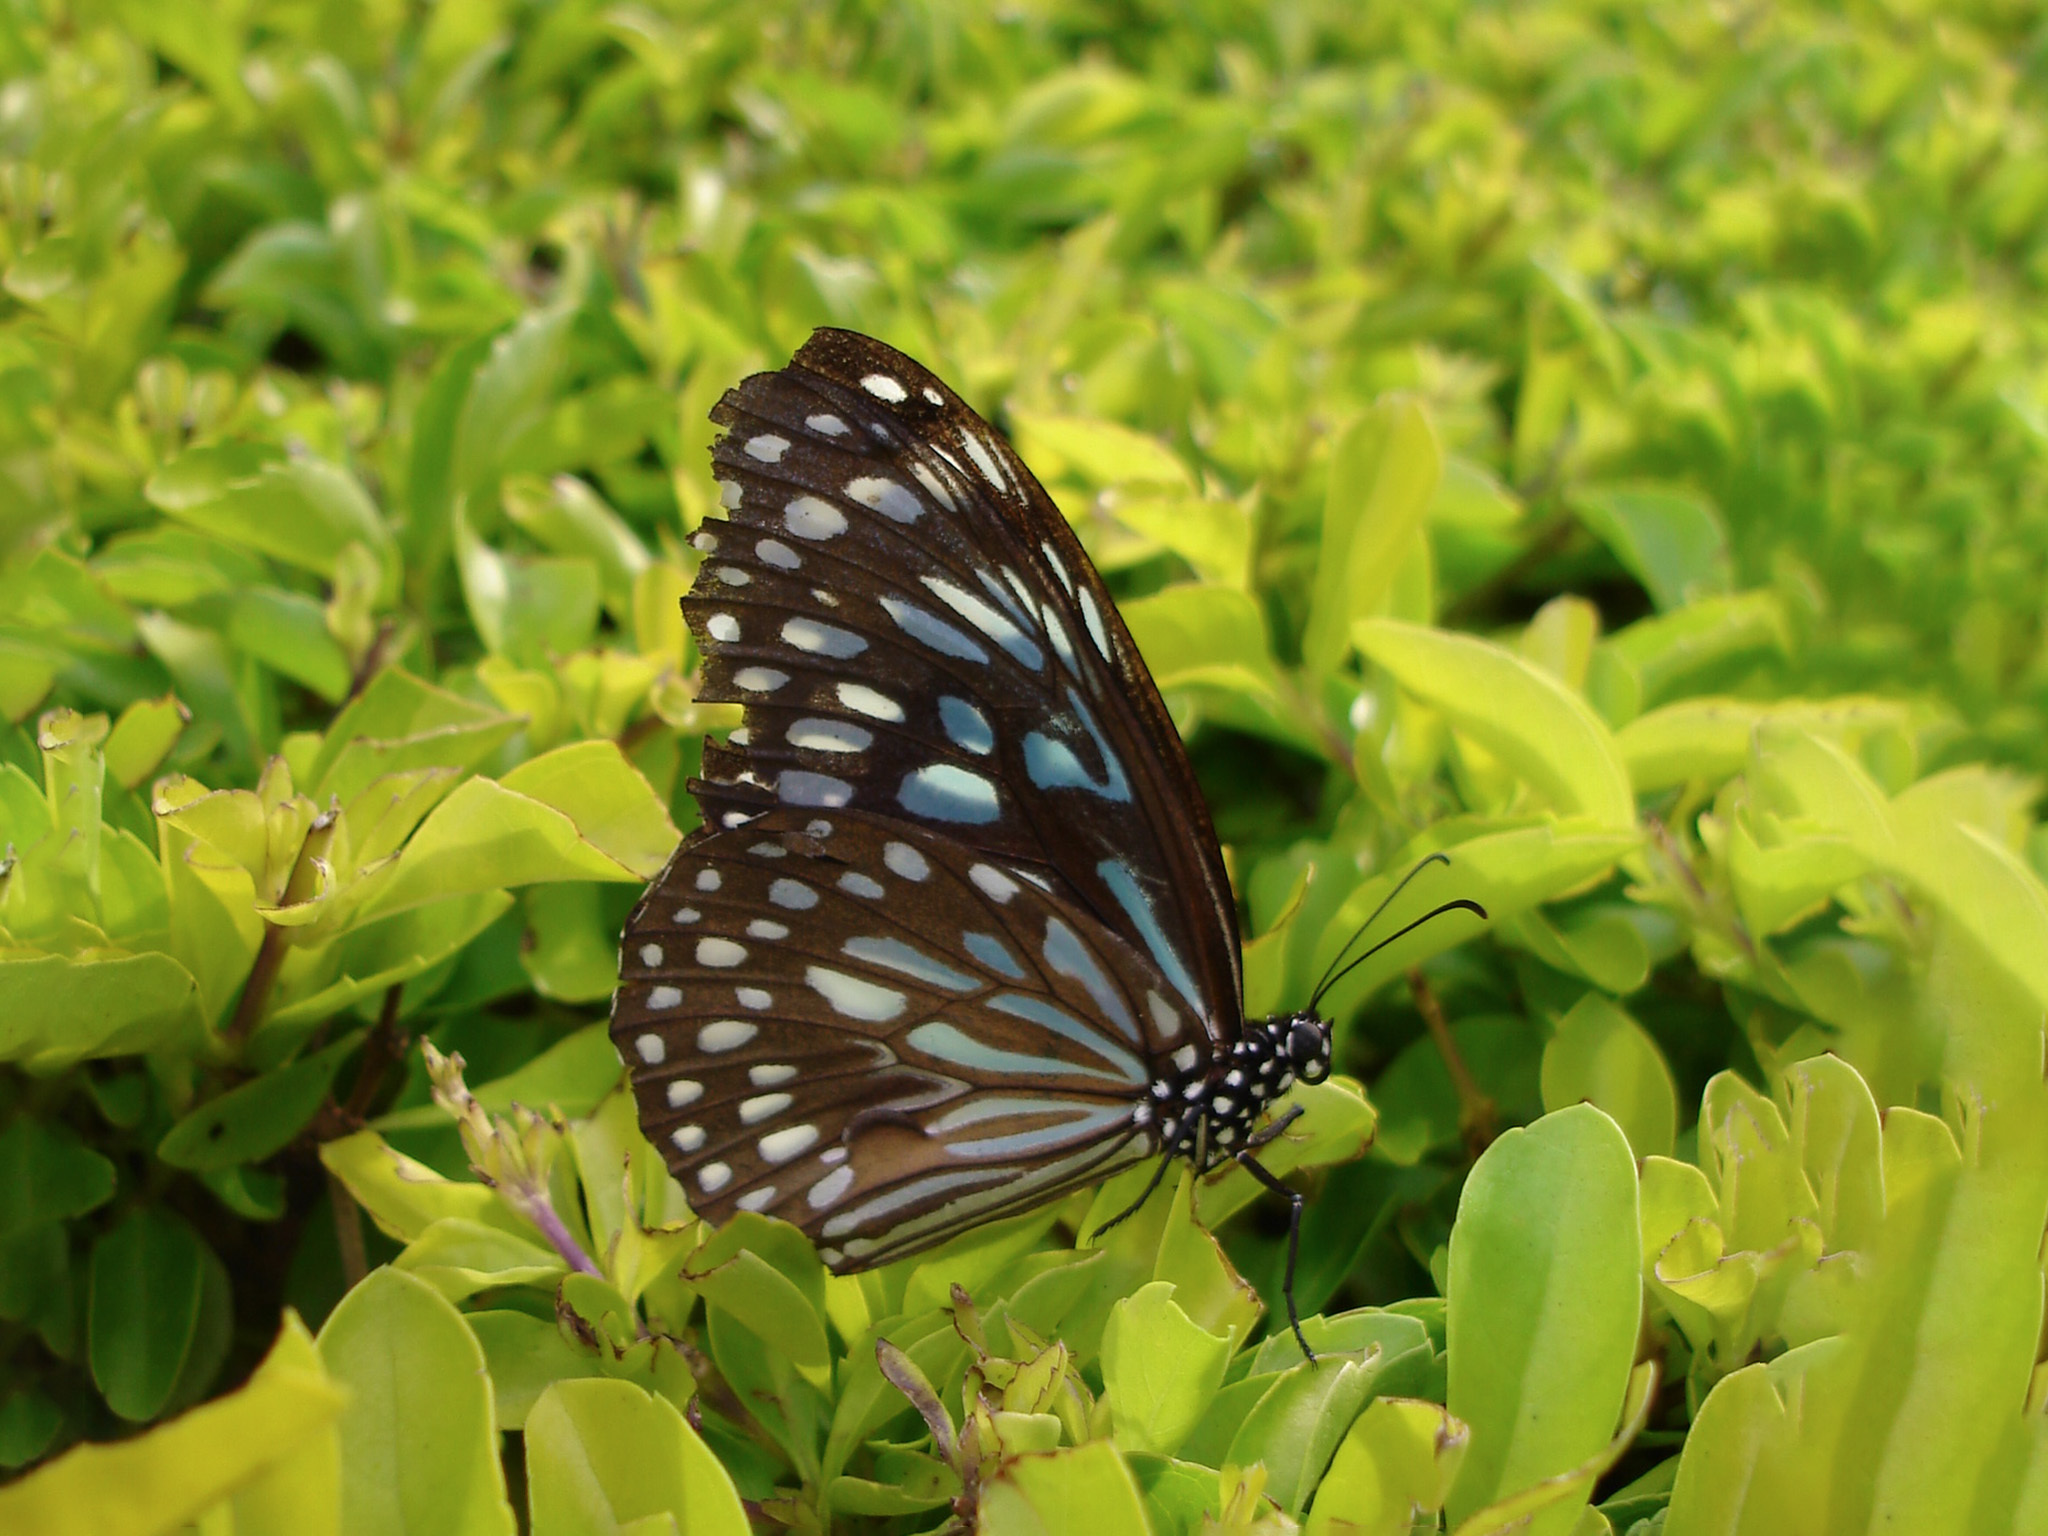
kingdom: Animalia
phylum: Arthropoda
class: Insecta
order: Lepidoptera
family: Nymphalidae
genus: Tirumala
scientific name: Tirumala septentrionis
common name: Dark blue tiger butterfly
